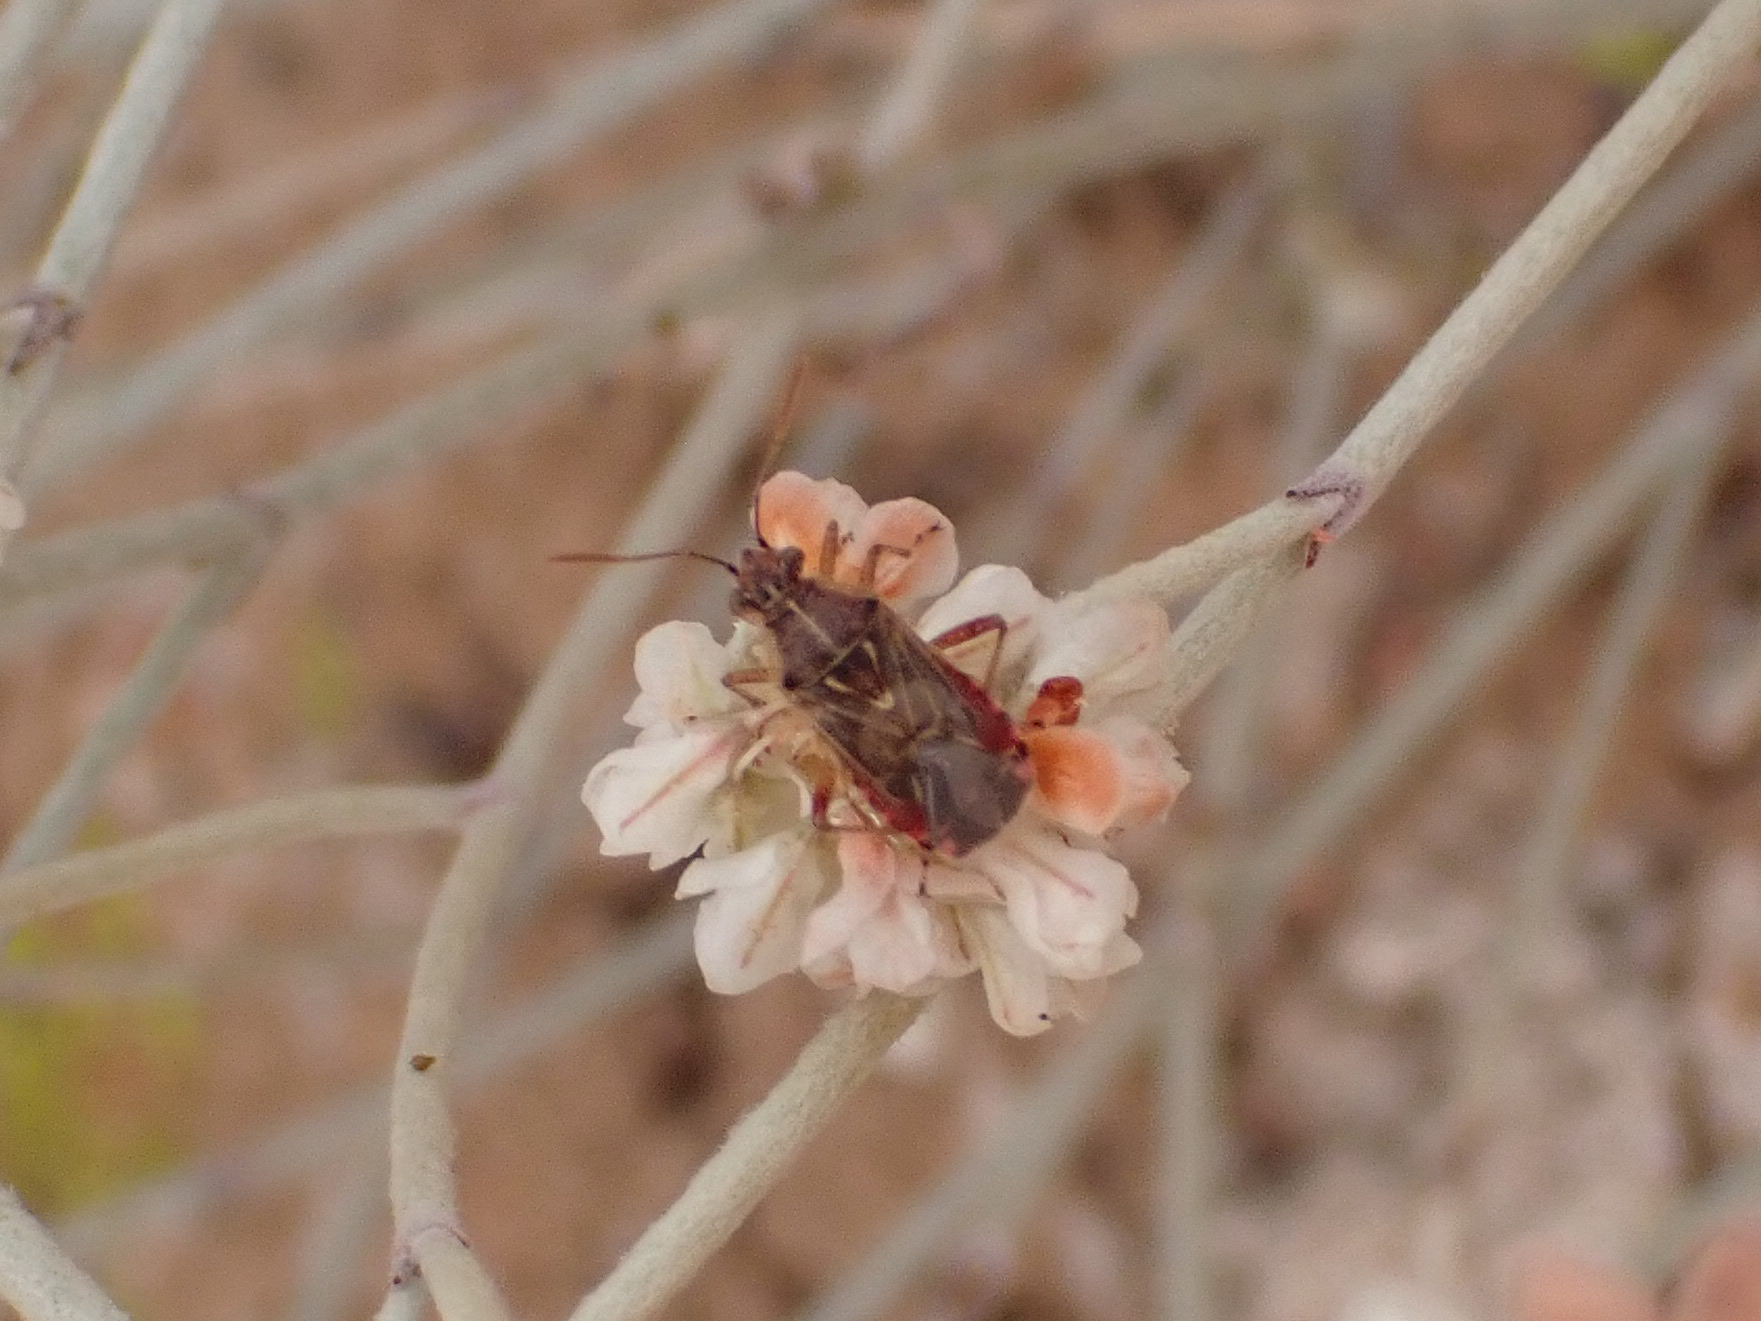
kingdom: Animalia
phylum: Arthropoda
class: Insecta
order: Hemiptera
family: Rhopalidae
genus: Liorhyssus
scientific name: Liorhyssus hyalinus
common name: Scentless plant bug
